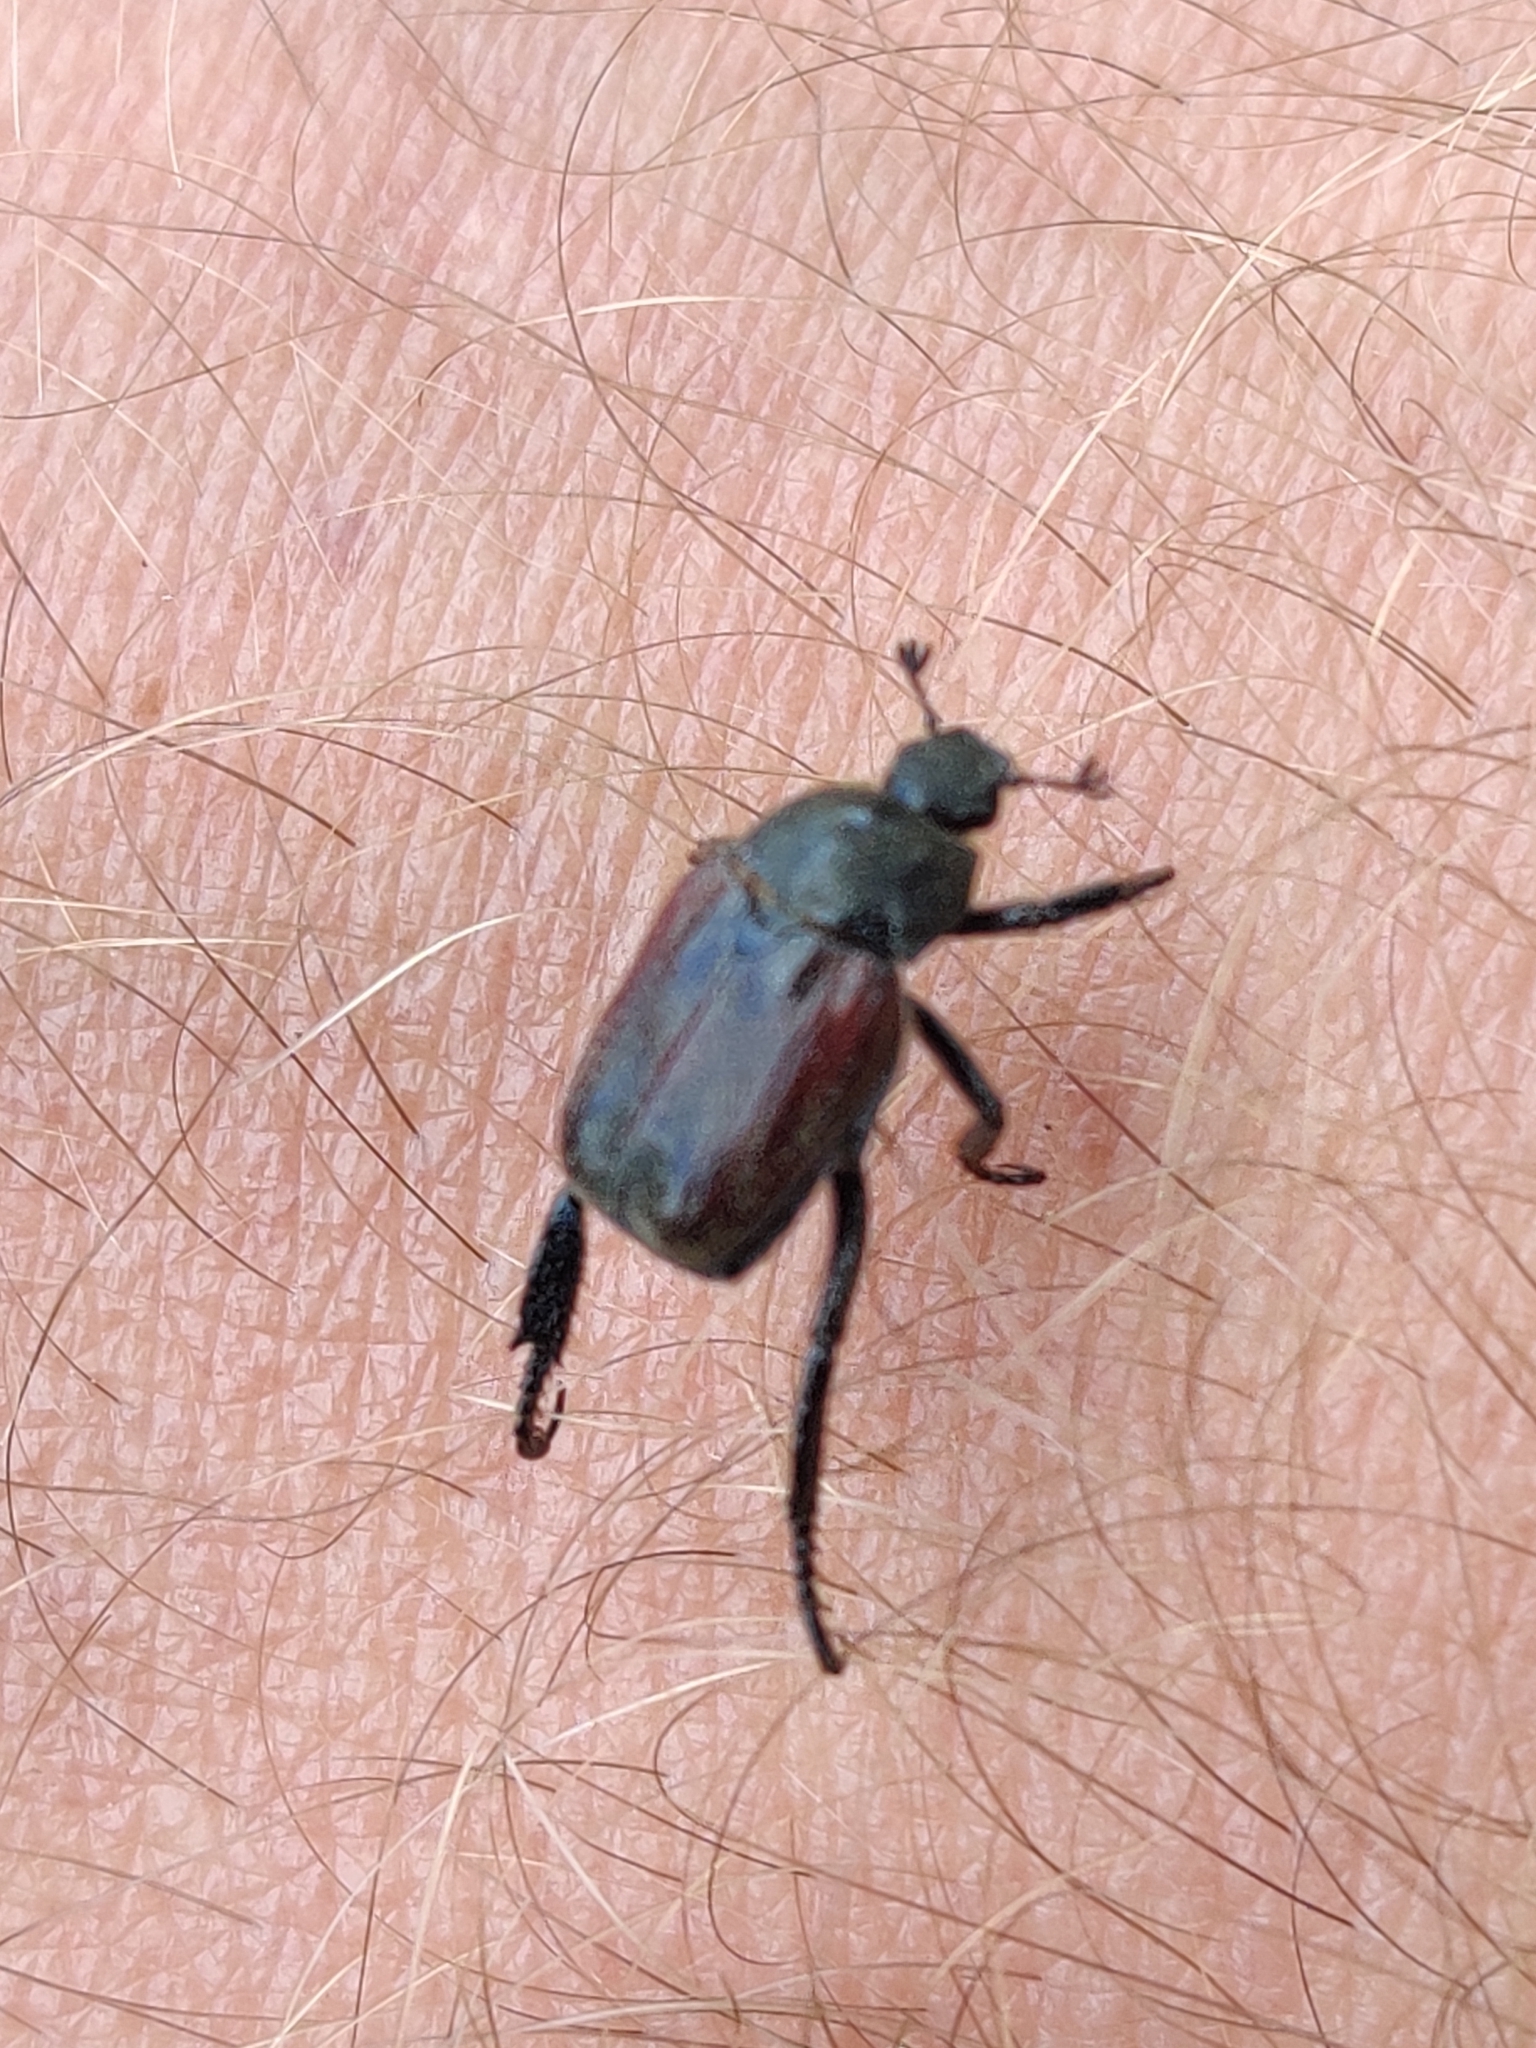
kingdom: Animalia
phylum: Arthropoda
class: Insecta
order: Coleoptera
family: Scarabaeidae
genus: Hoplia
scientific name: Hoplia philanthus
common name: Welsh chafer
